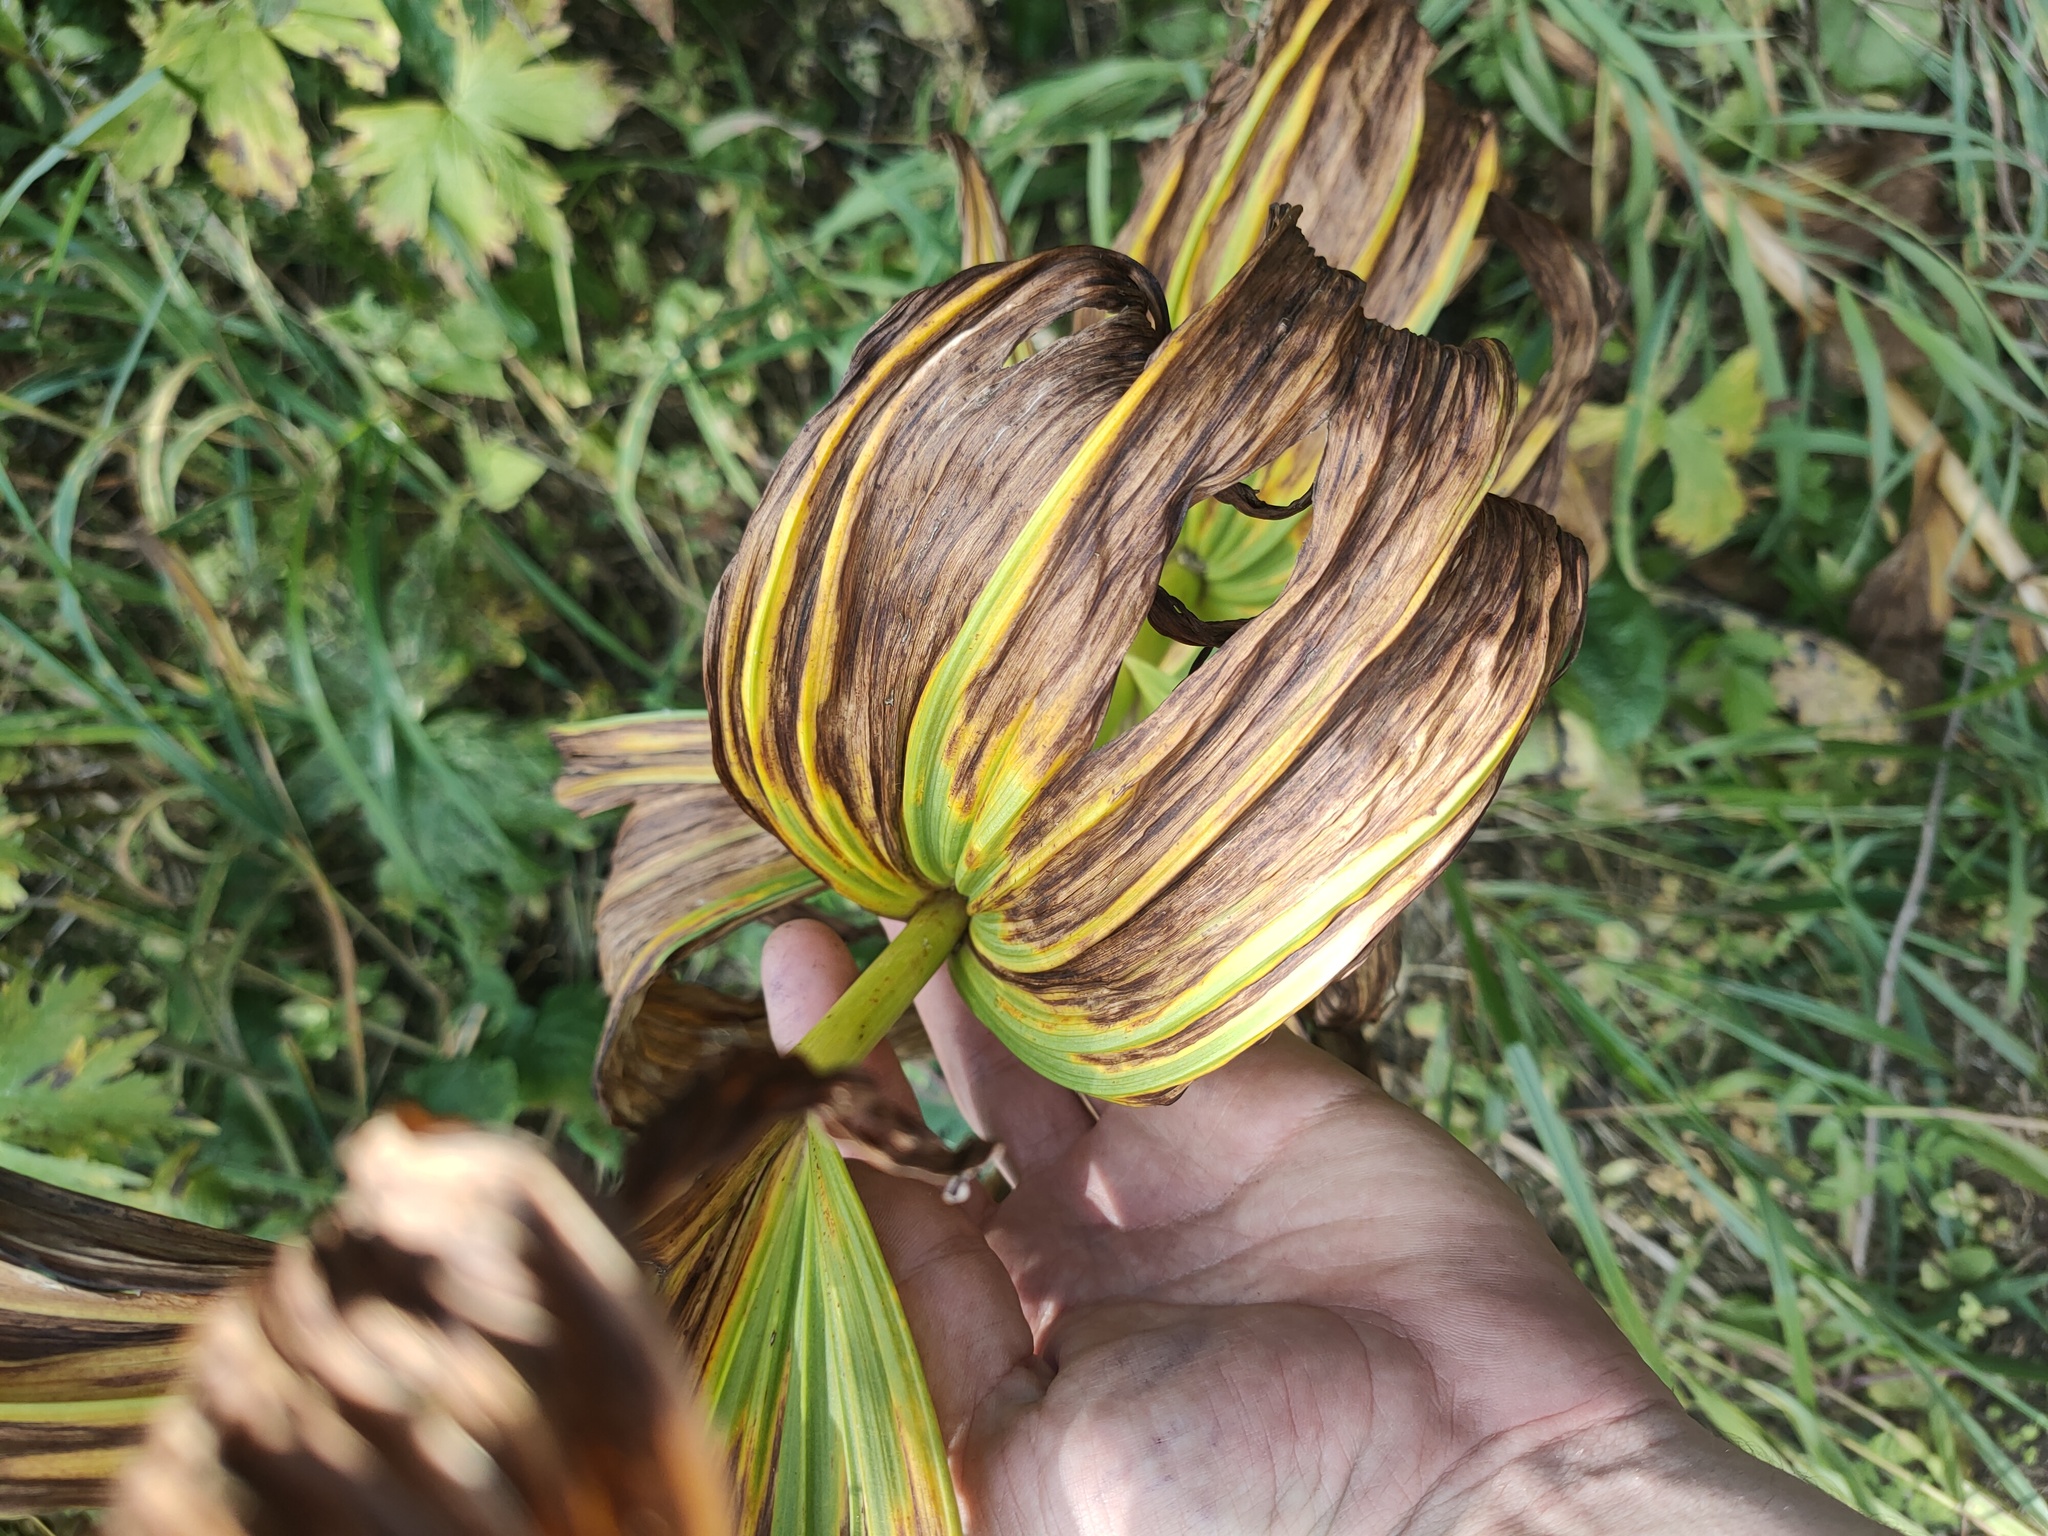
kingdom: Plantae
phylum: Tracheophyta
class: Liliopsida
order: Liliales
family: Melanthiaceae
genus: Veratrum
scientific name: Veratrum lobelianum
